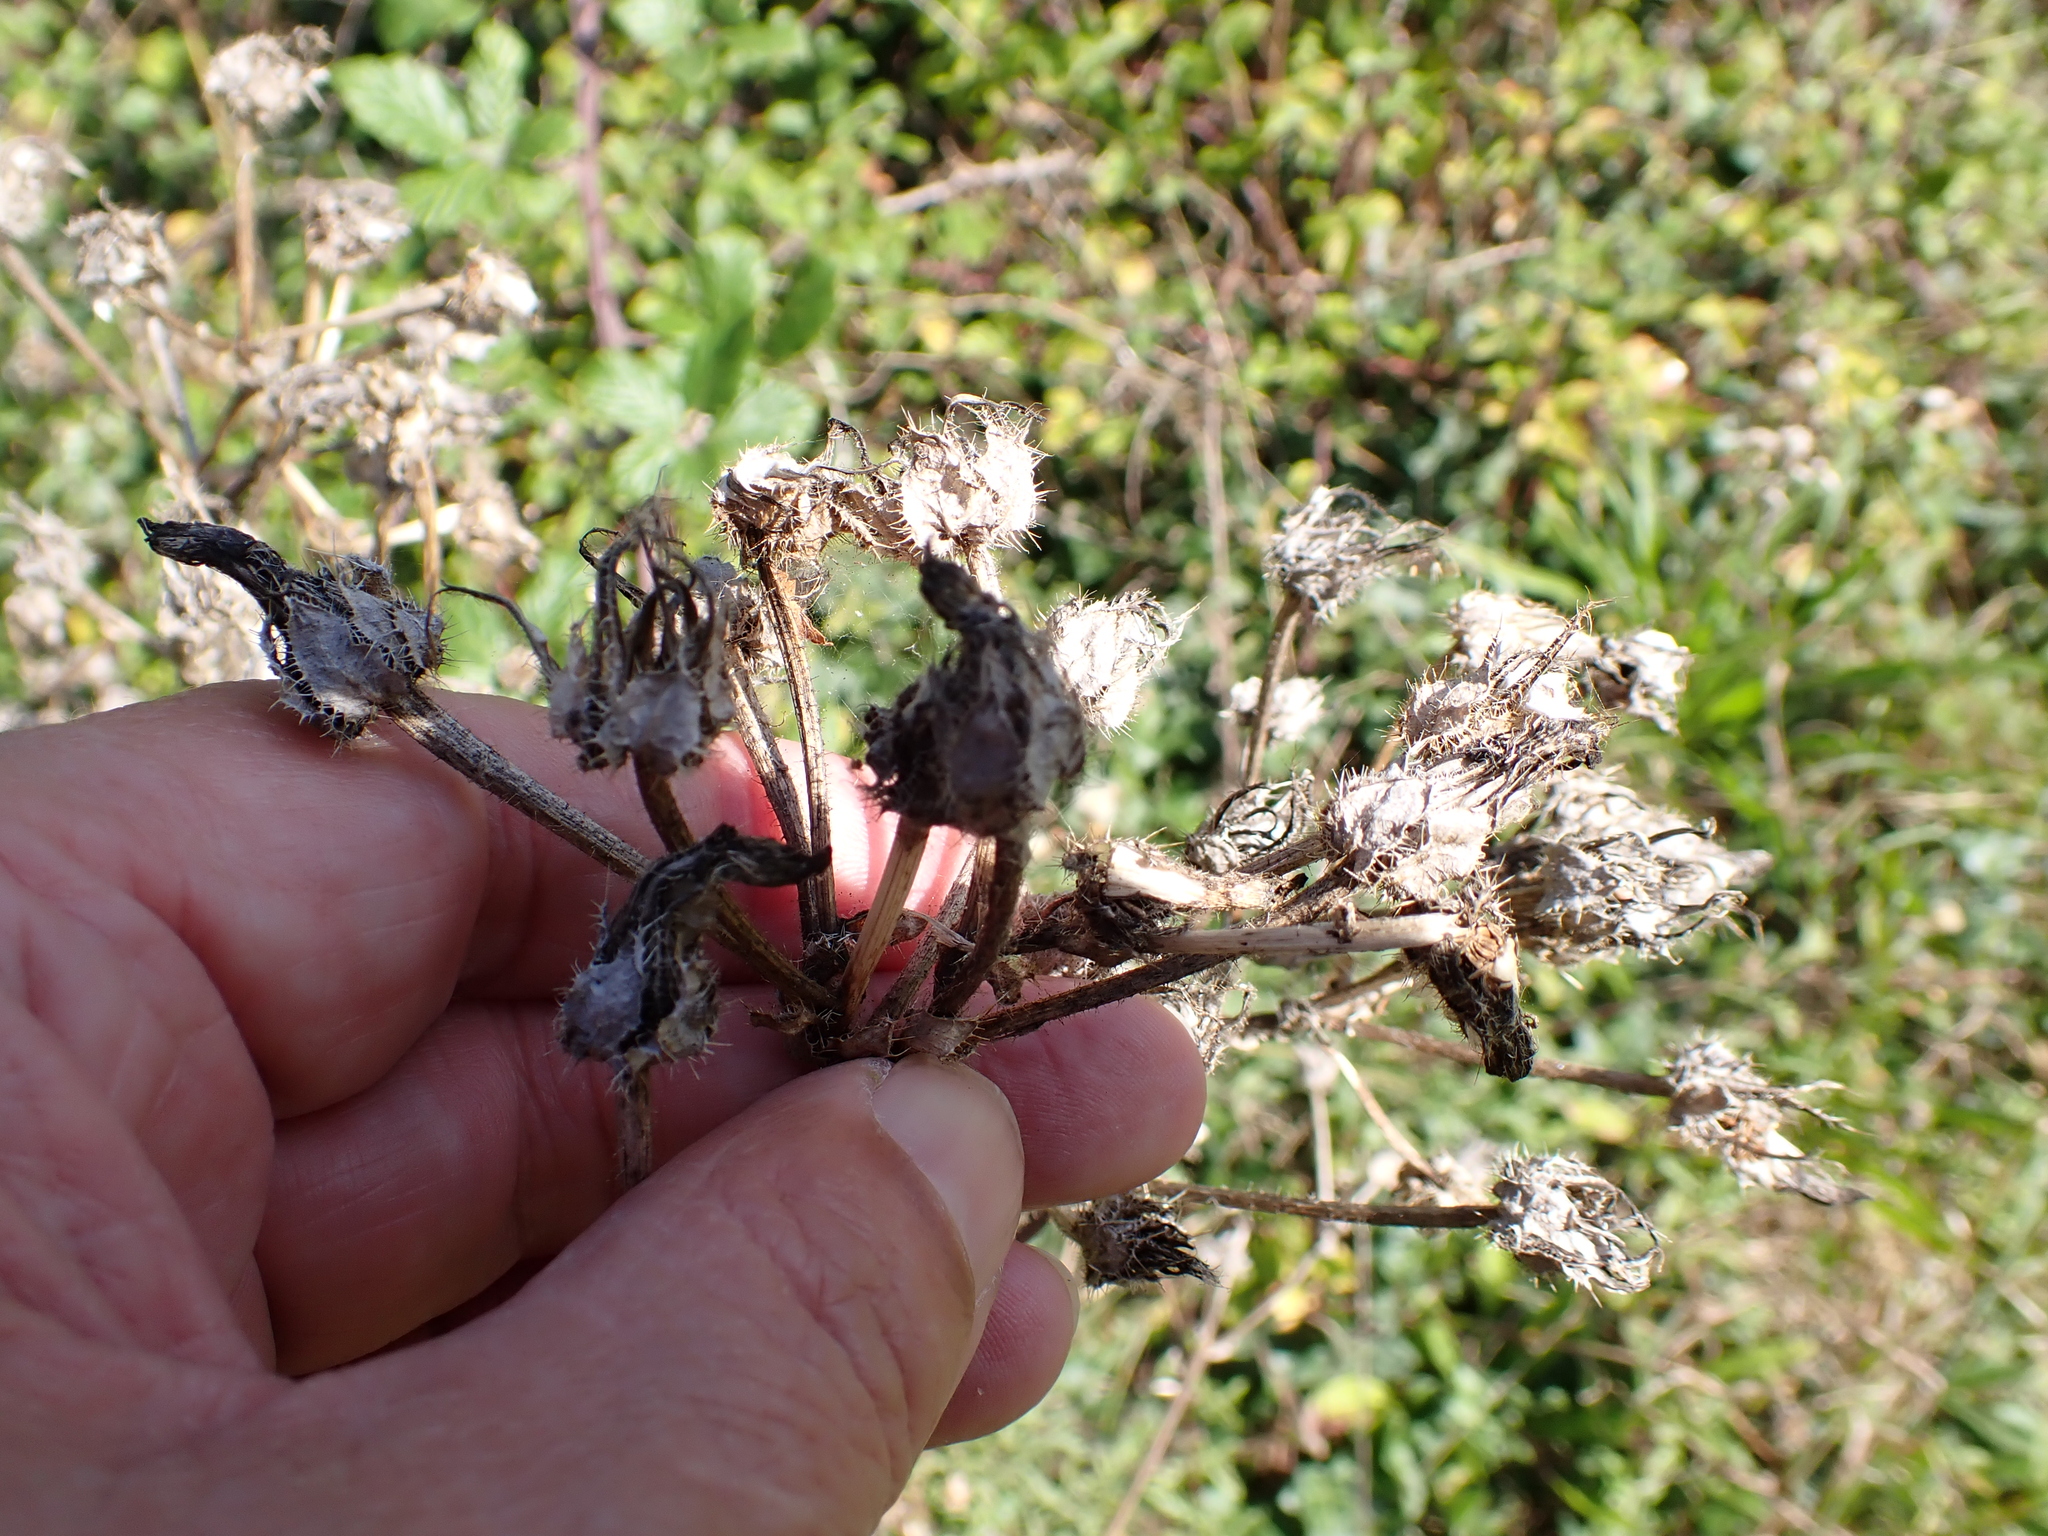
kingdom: Plantae
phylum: Tracheophyta
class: Magnoliopsida
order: Asterales
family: Asteraceae
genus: Helminthotheca
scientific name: Helminthotheca echioides
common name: Ox-tongue
